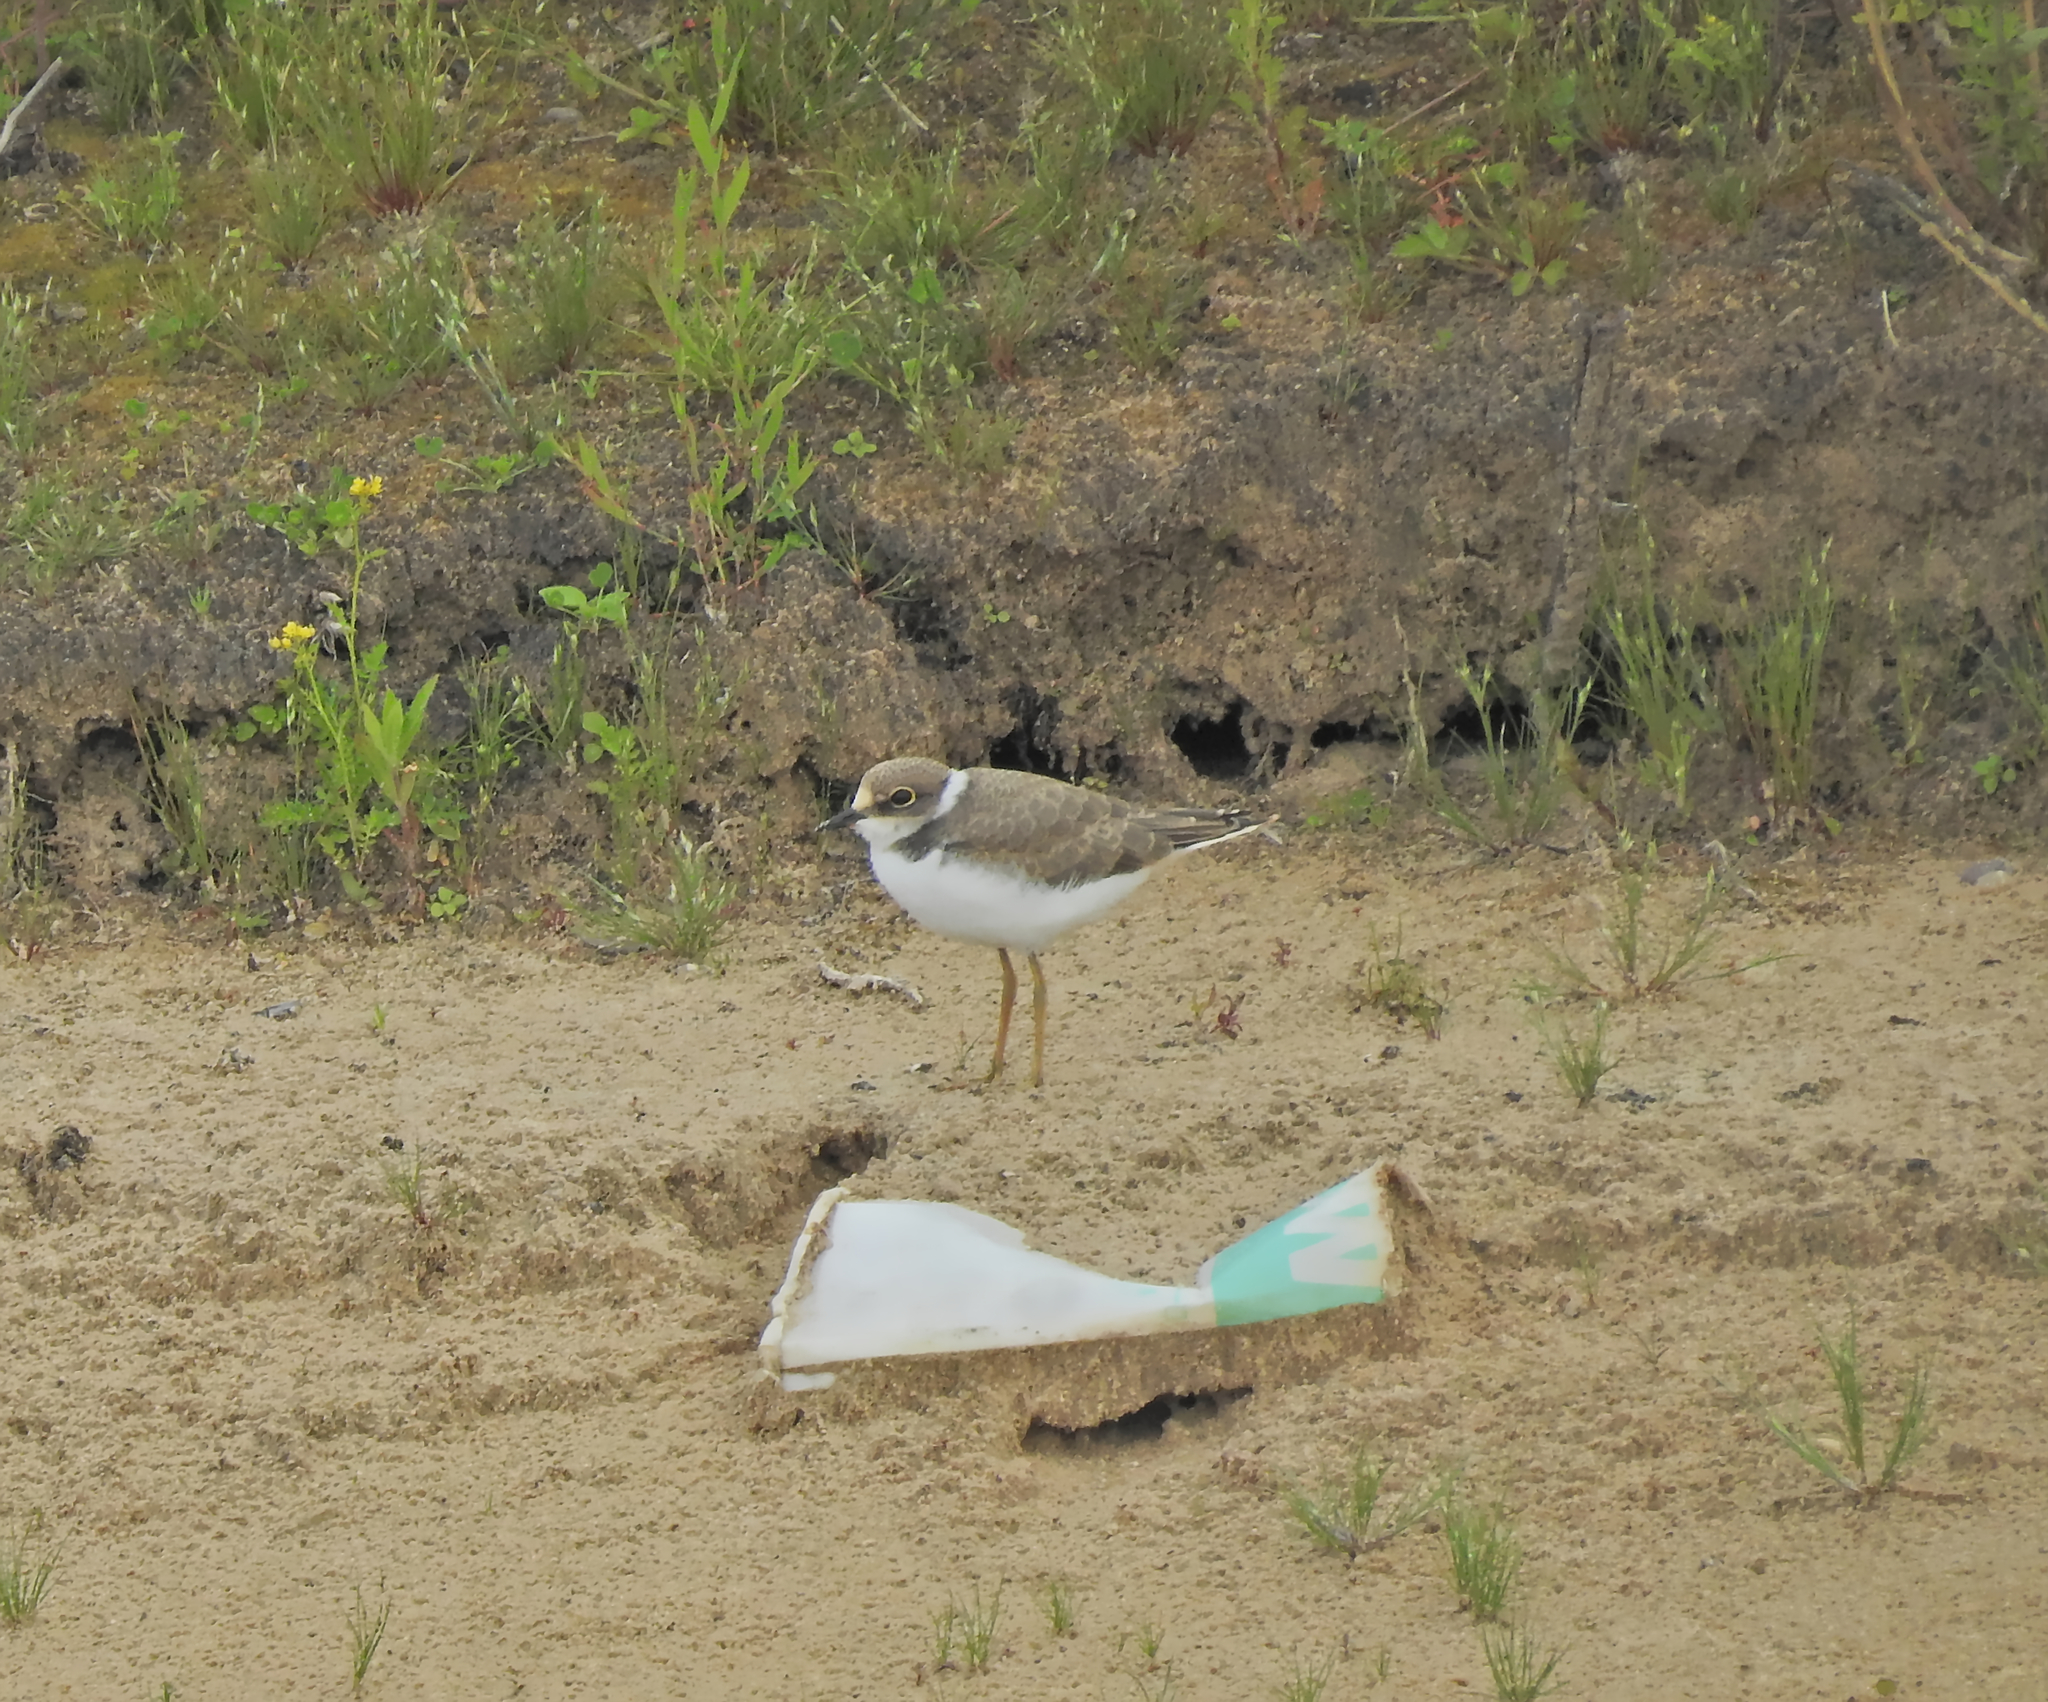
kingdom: Animalia
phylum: Chordata
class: Aves
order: Charadriiformes
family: Charadriidae
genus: Charadrius
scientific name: Charadrius dubius
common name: Little ringed plover
